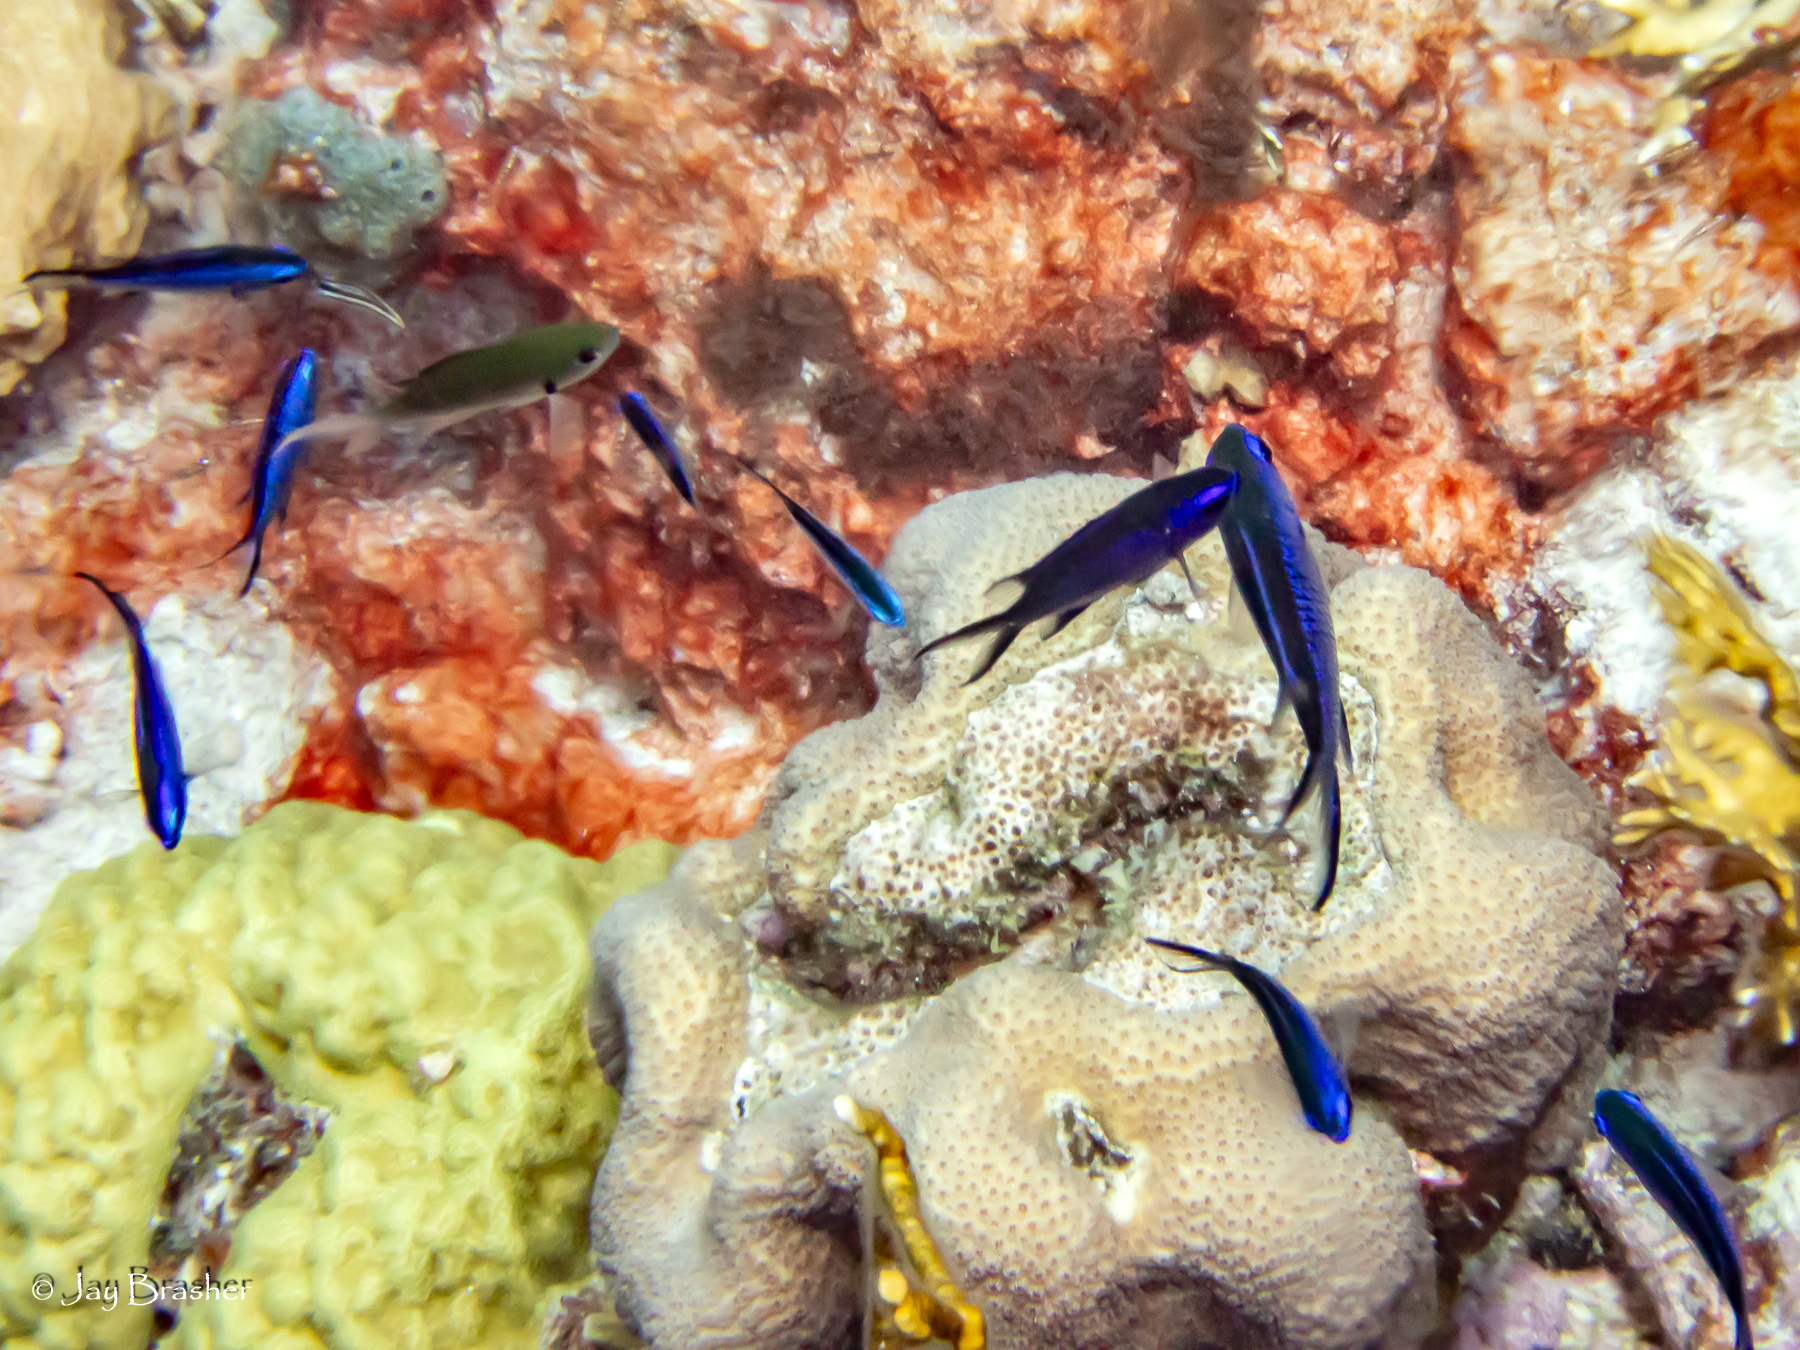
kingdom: Animalia
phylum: Cnidaria
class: Anthozoa
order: Scleractinia
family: Poritidae
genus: Porites
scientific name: Porites astreoides
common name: Mustard hill coral
